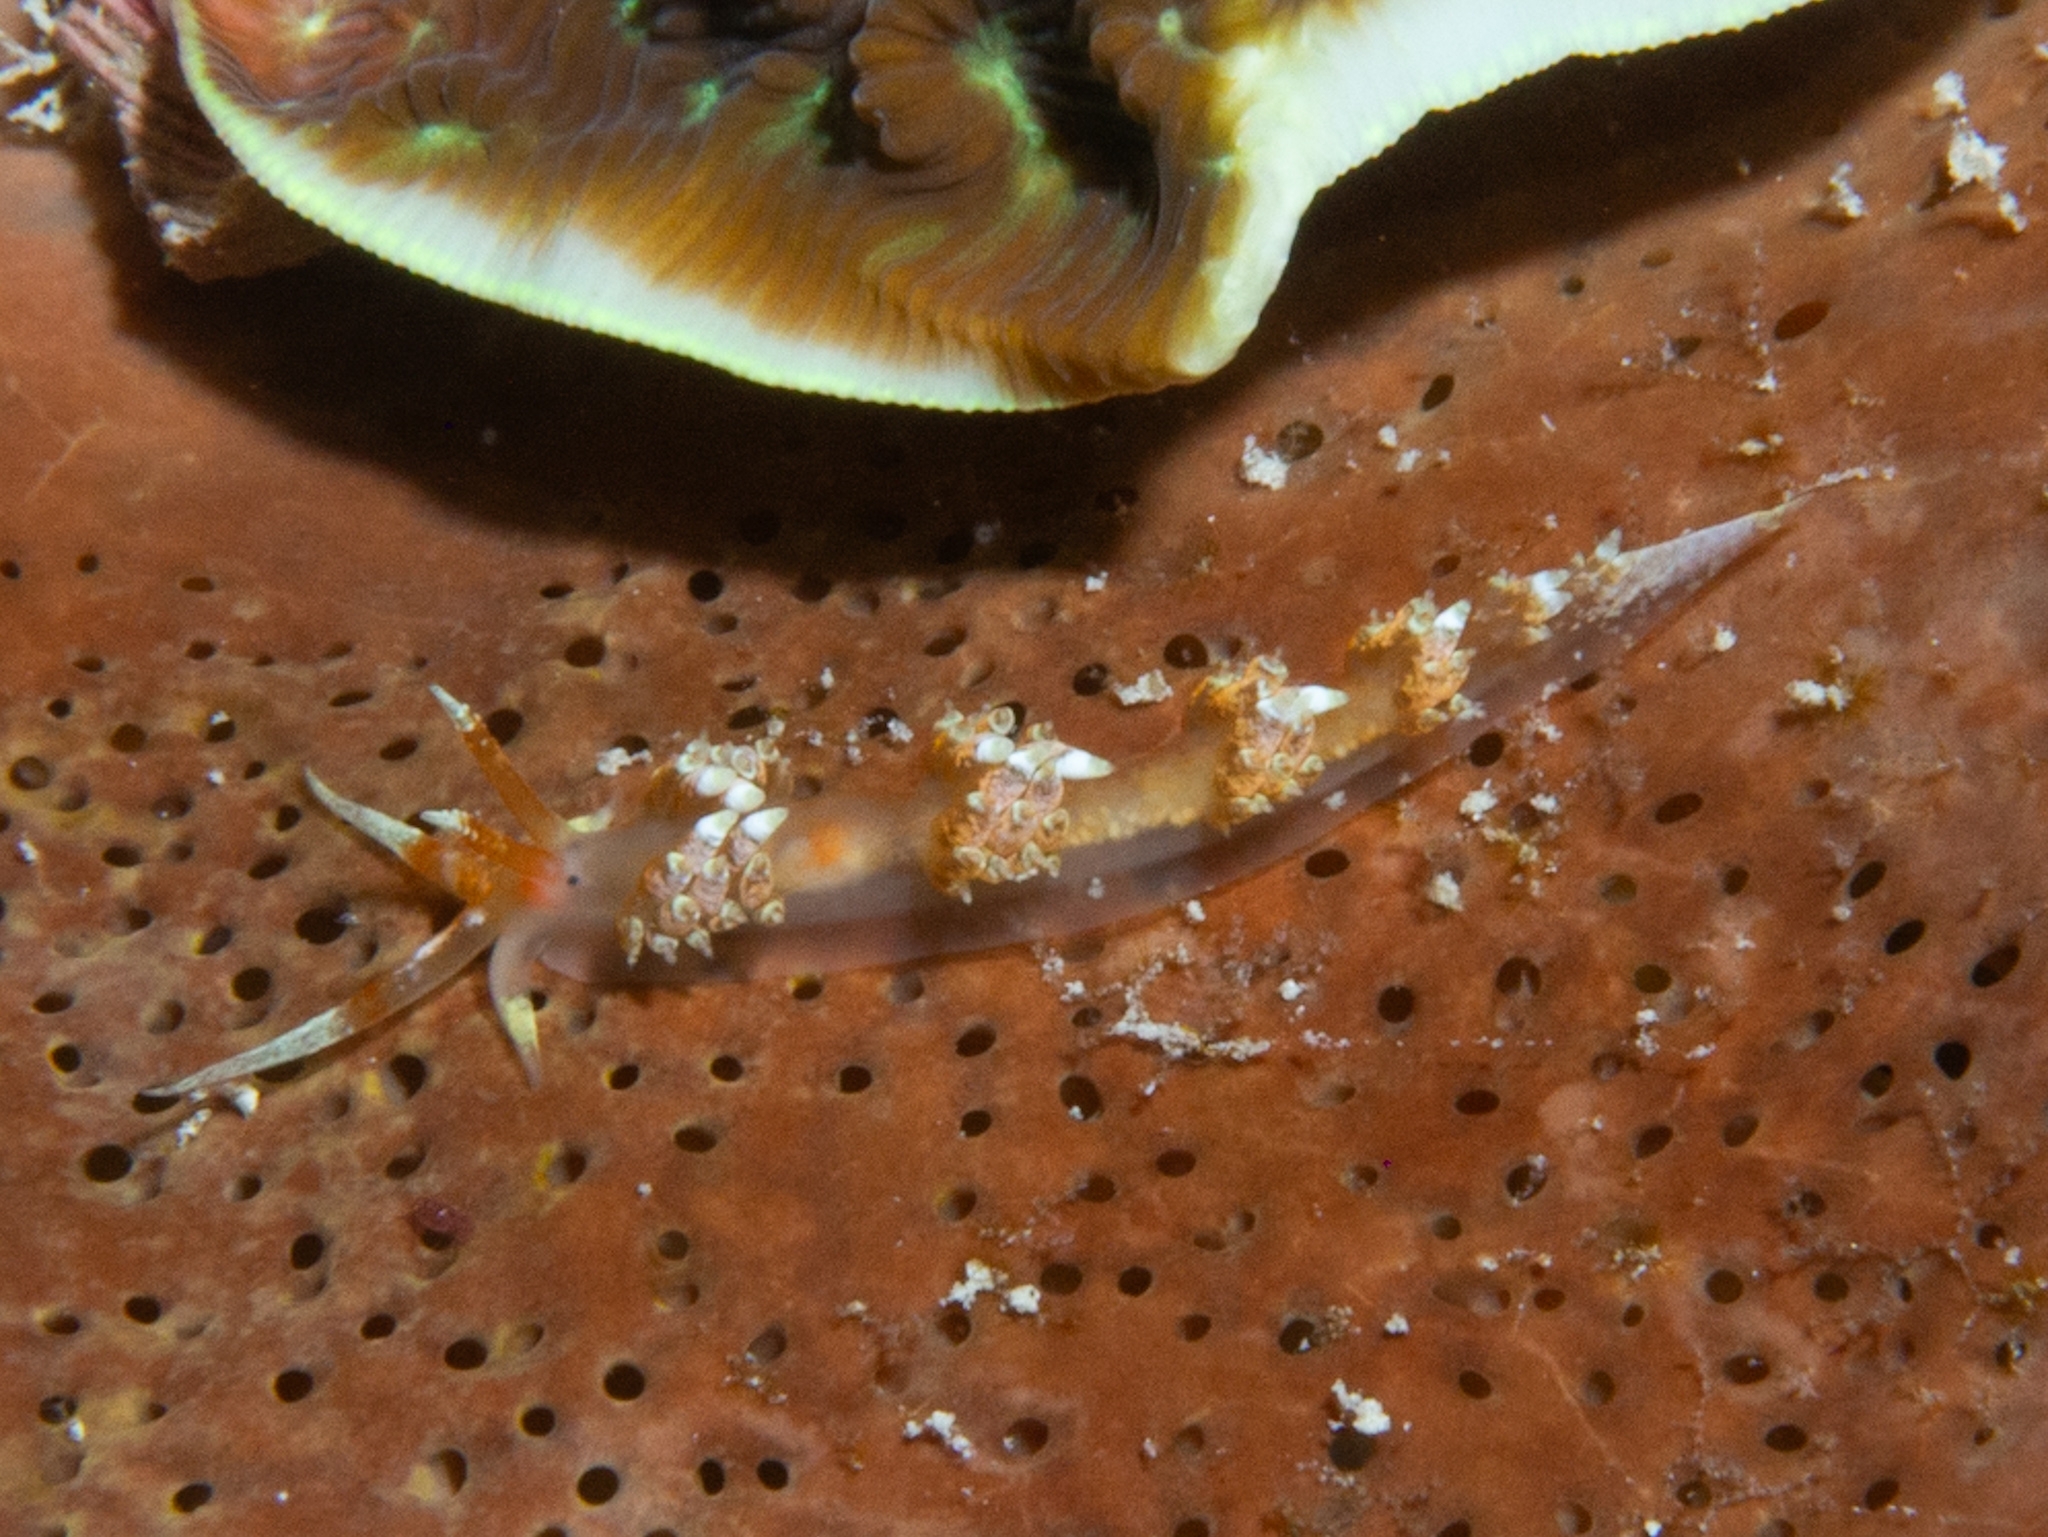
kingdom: Animalia
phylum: Mollusca
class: Gastropoda
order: Nudibranchia
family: Facelinidae
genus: Austraeolis
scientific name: Austraeolis catina
